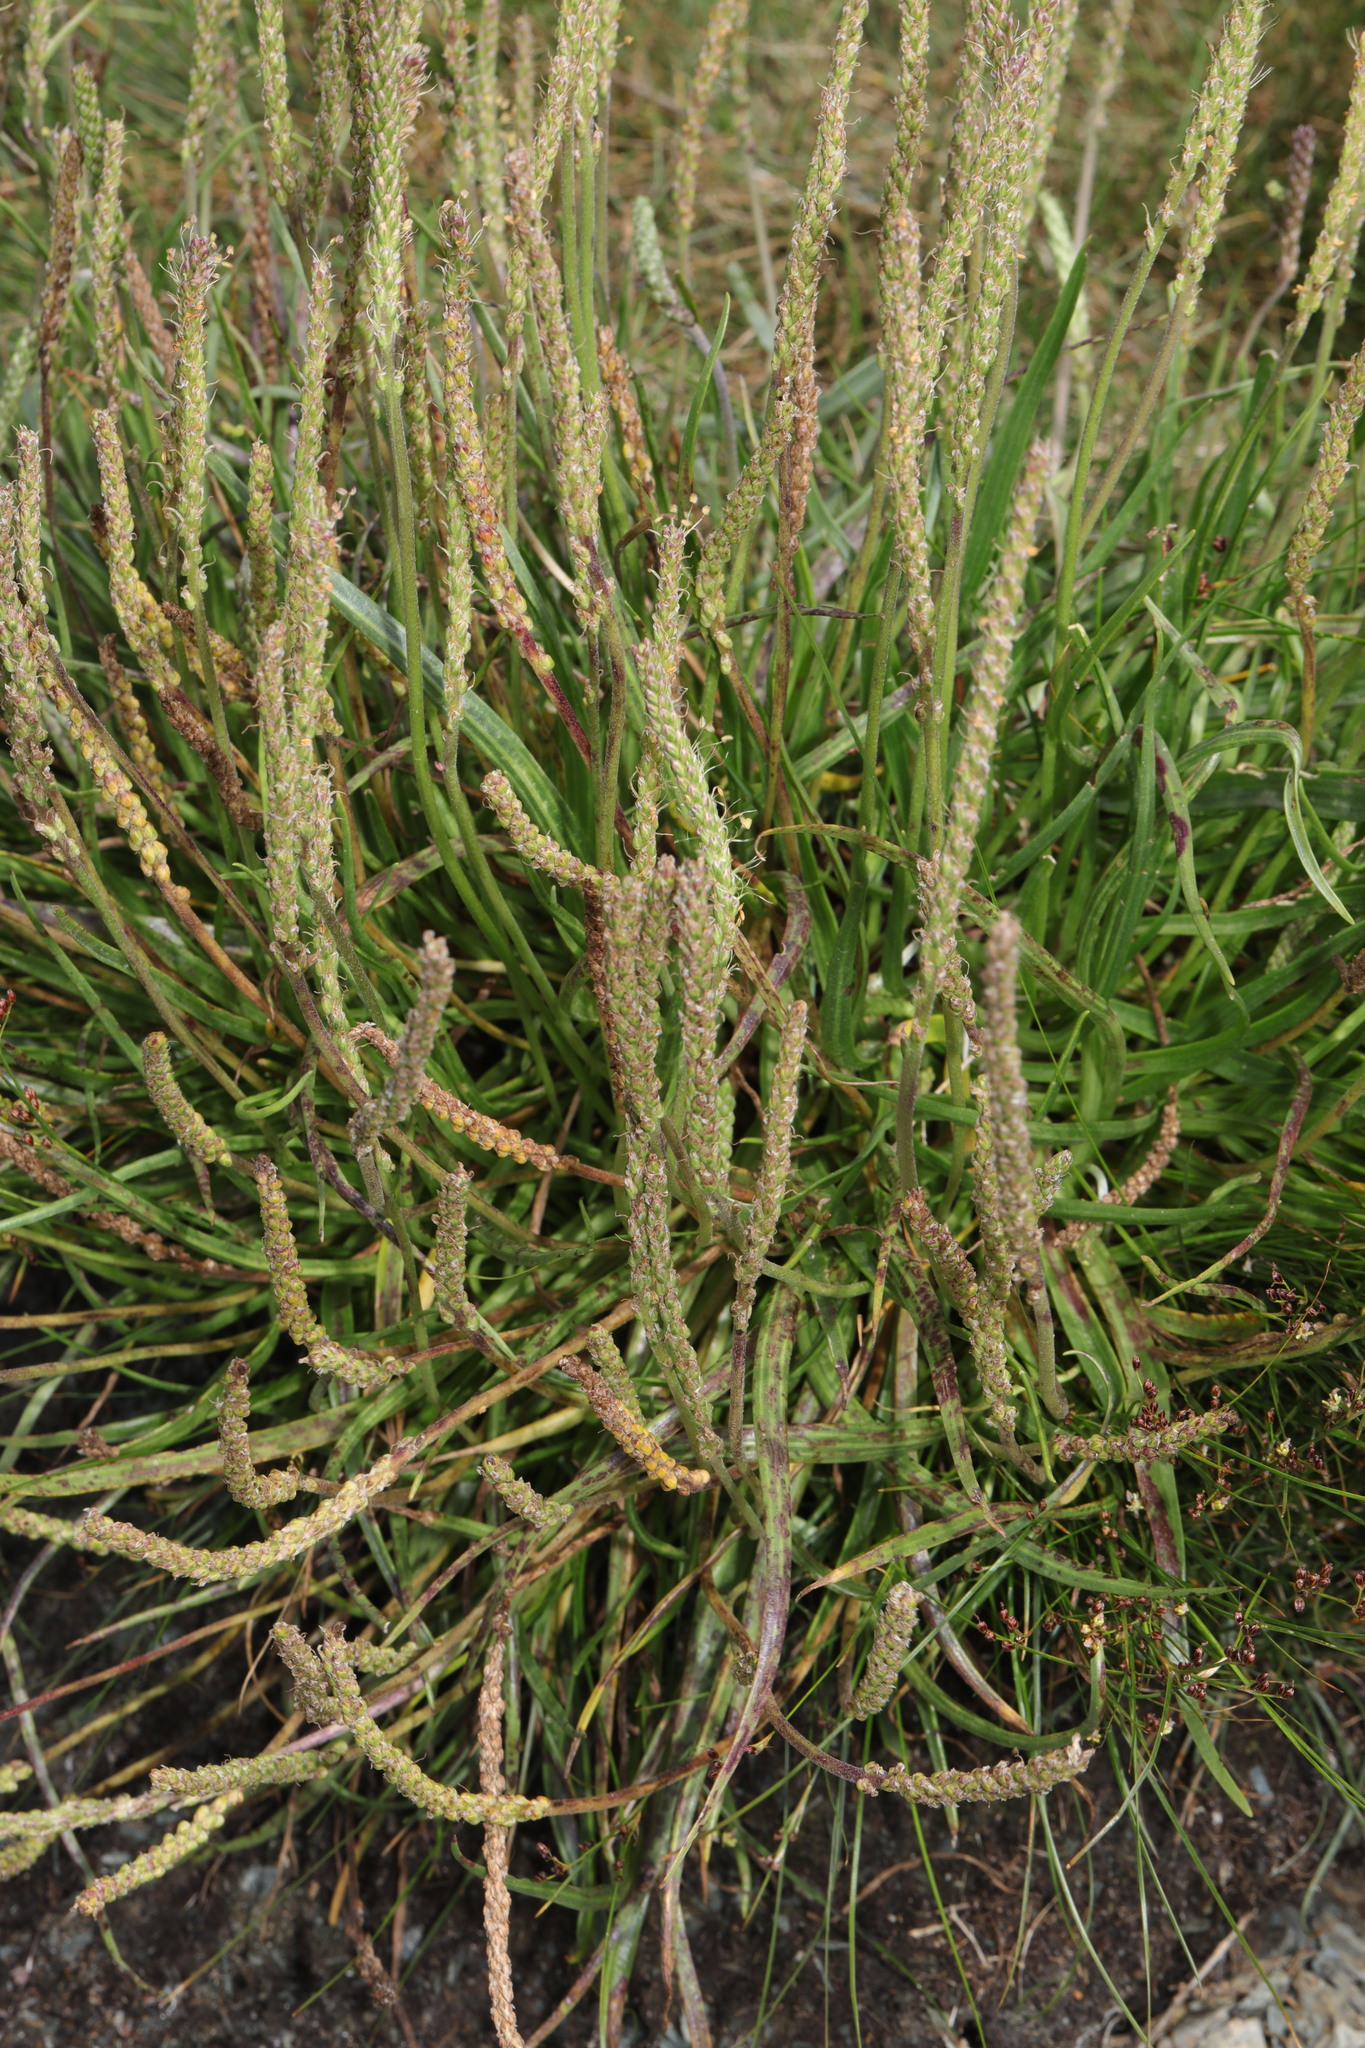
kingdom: Plantae
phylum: Tracheophyta
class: Magnoliopsida
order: Lamiales
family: Plantaginaceae
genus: Plantago
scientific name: Plantago maritima
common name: Sea plantain
